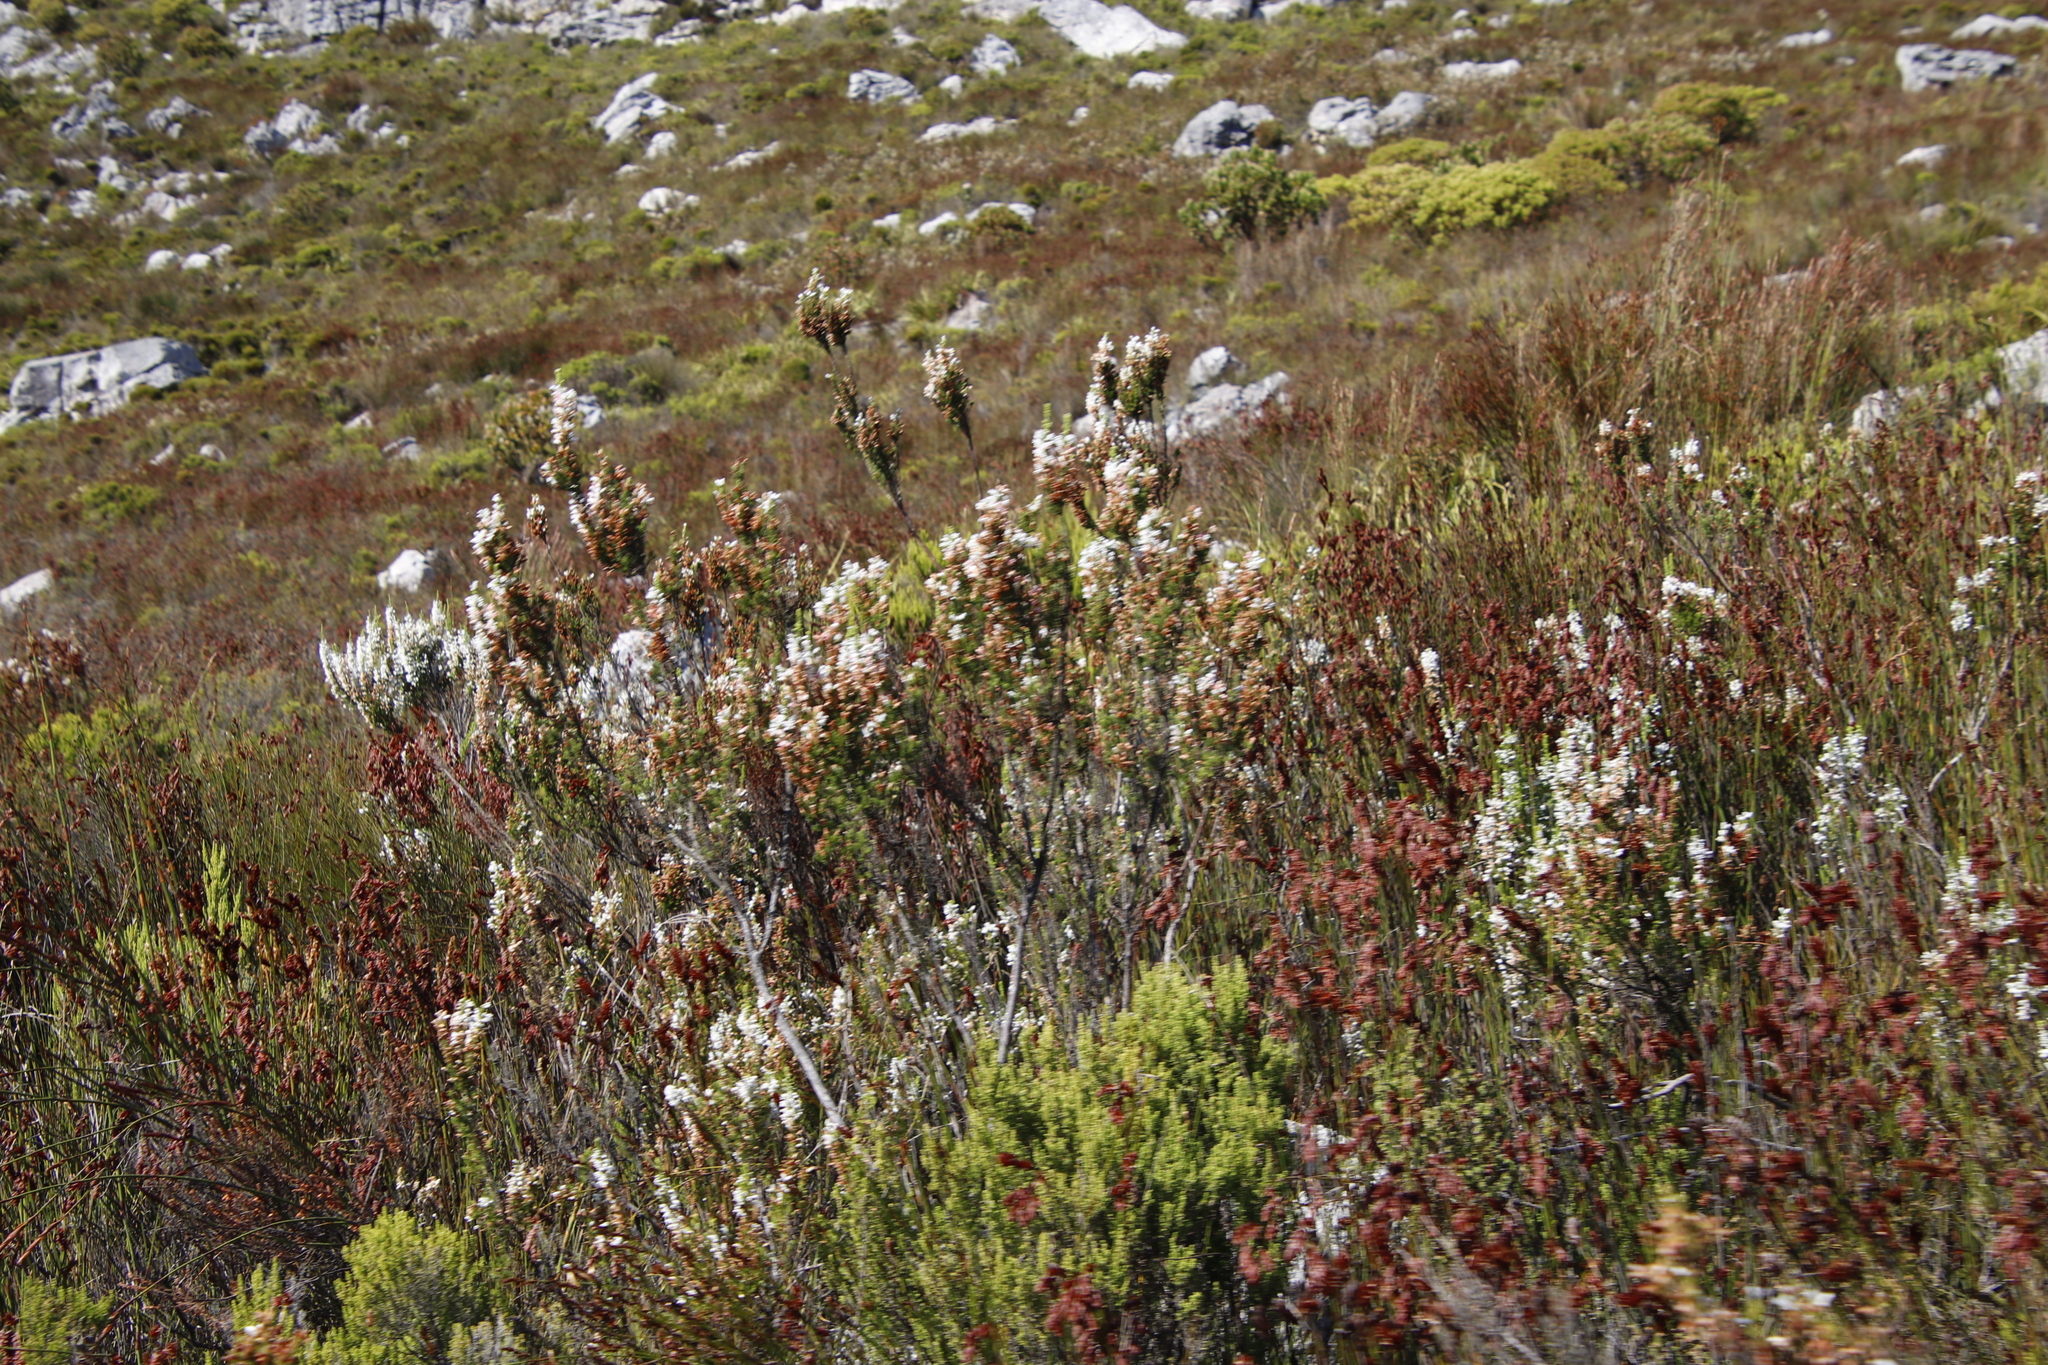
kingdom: Plantae
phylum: Tracheophyta
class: Magnoliopsida
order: Ericales
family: Ericaceae
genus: Erica
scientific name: Erica sitiens
